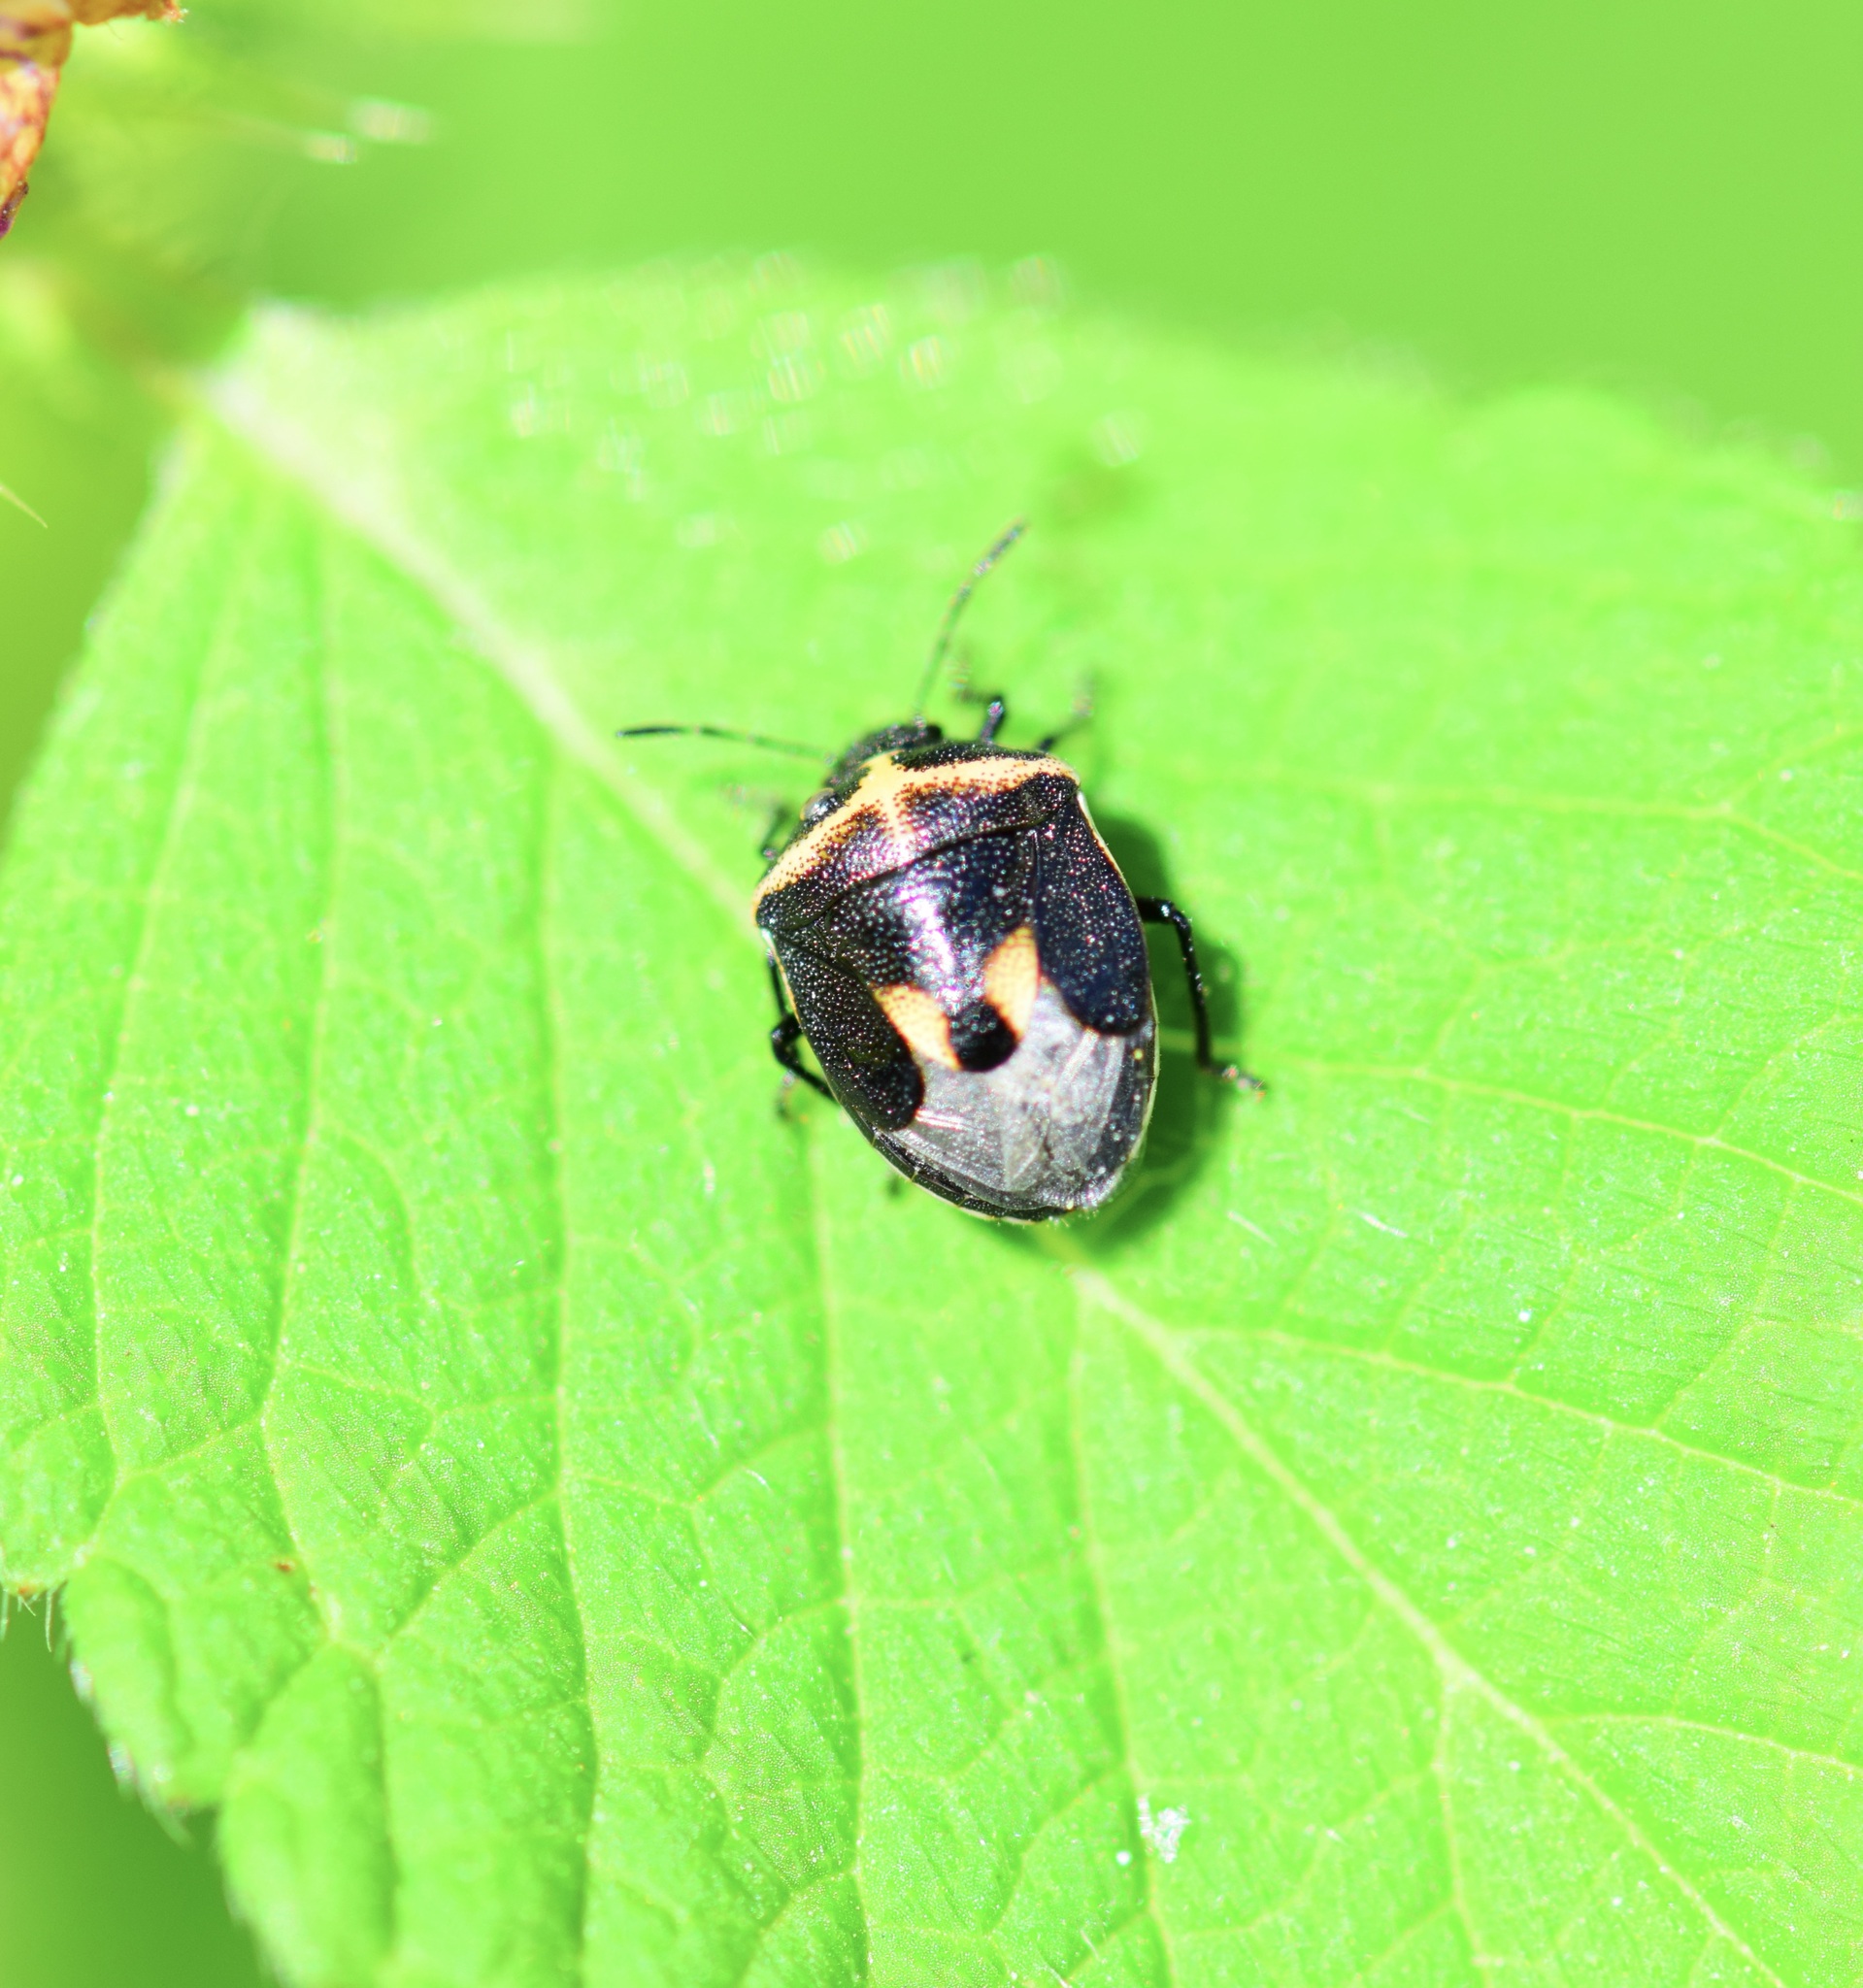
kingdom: Animalia
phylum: Arthropoda
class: Insecta
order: Hemiptera
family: Pentatomidae
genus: Cosmopepla
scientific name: Cosmopepla lintneriana
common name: Twice-stabbed stink bug
